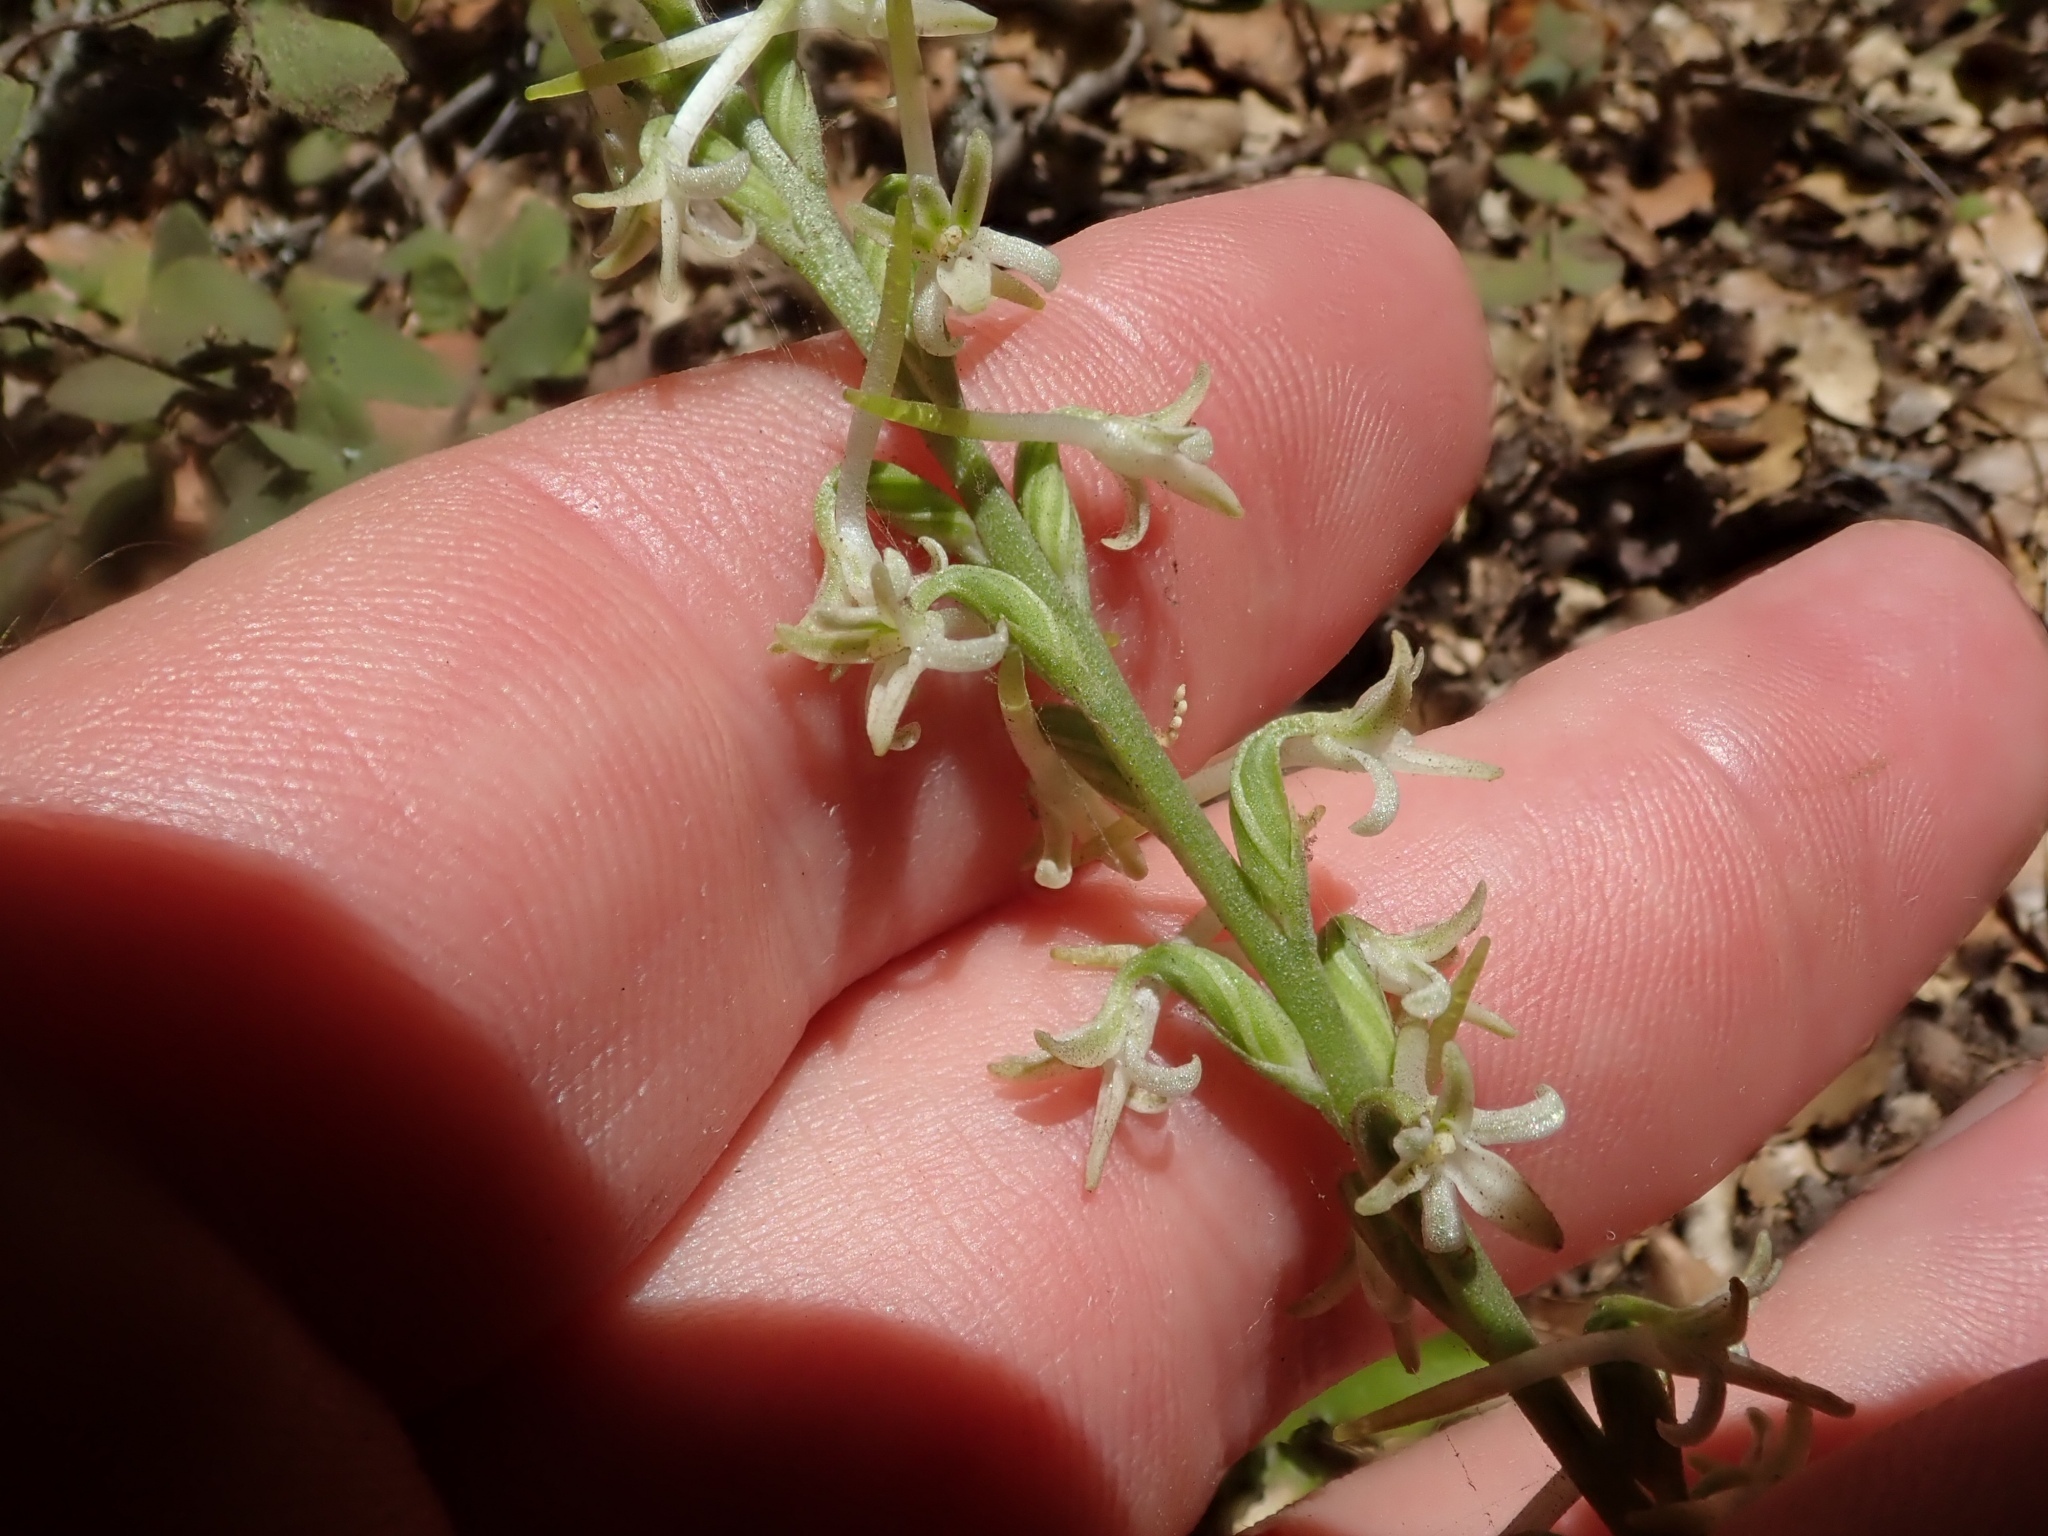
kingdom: Plantae
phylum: Tracheophyta
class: Liliopsida
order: Asparagales
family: Orchidaceae
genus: Platanthera
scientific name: Platanthera transversa
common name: Royal rein orchid
